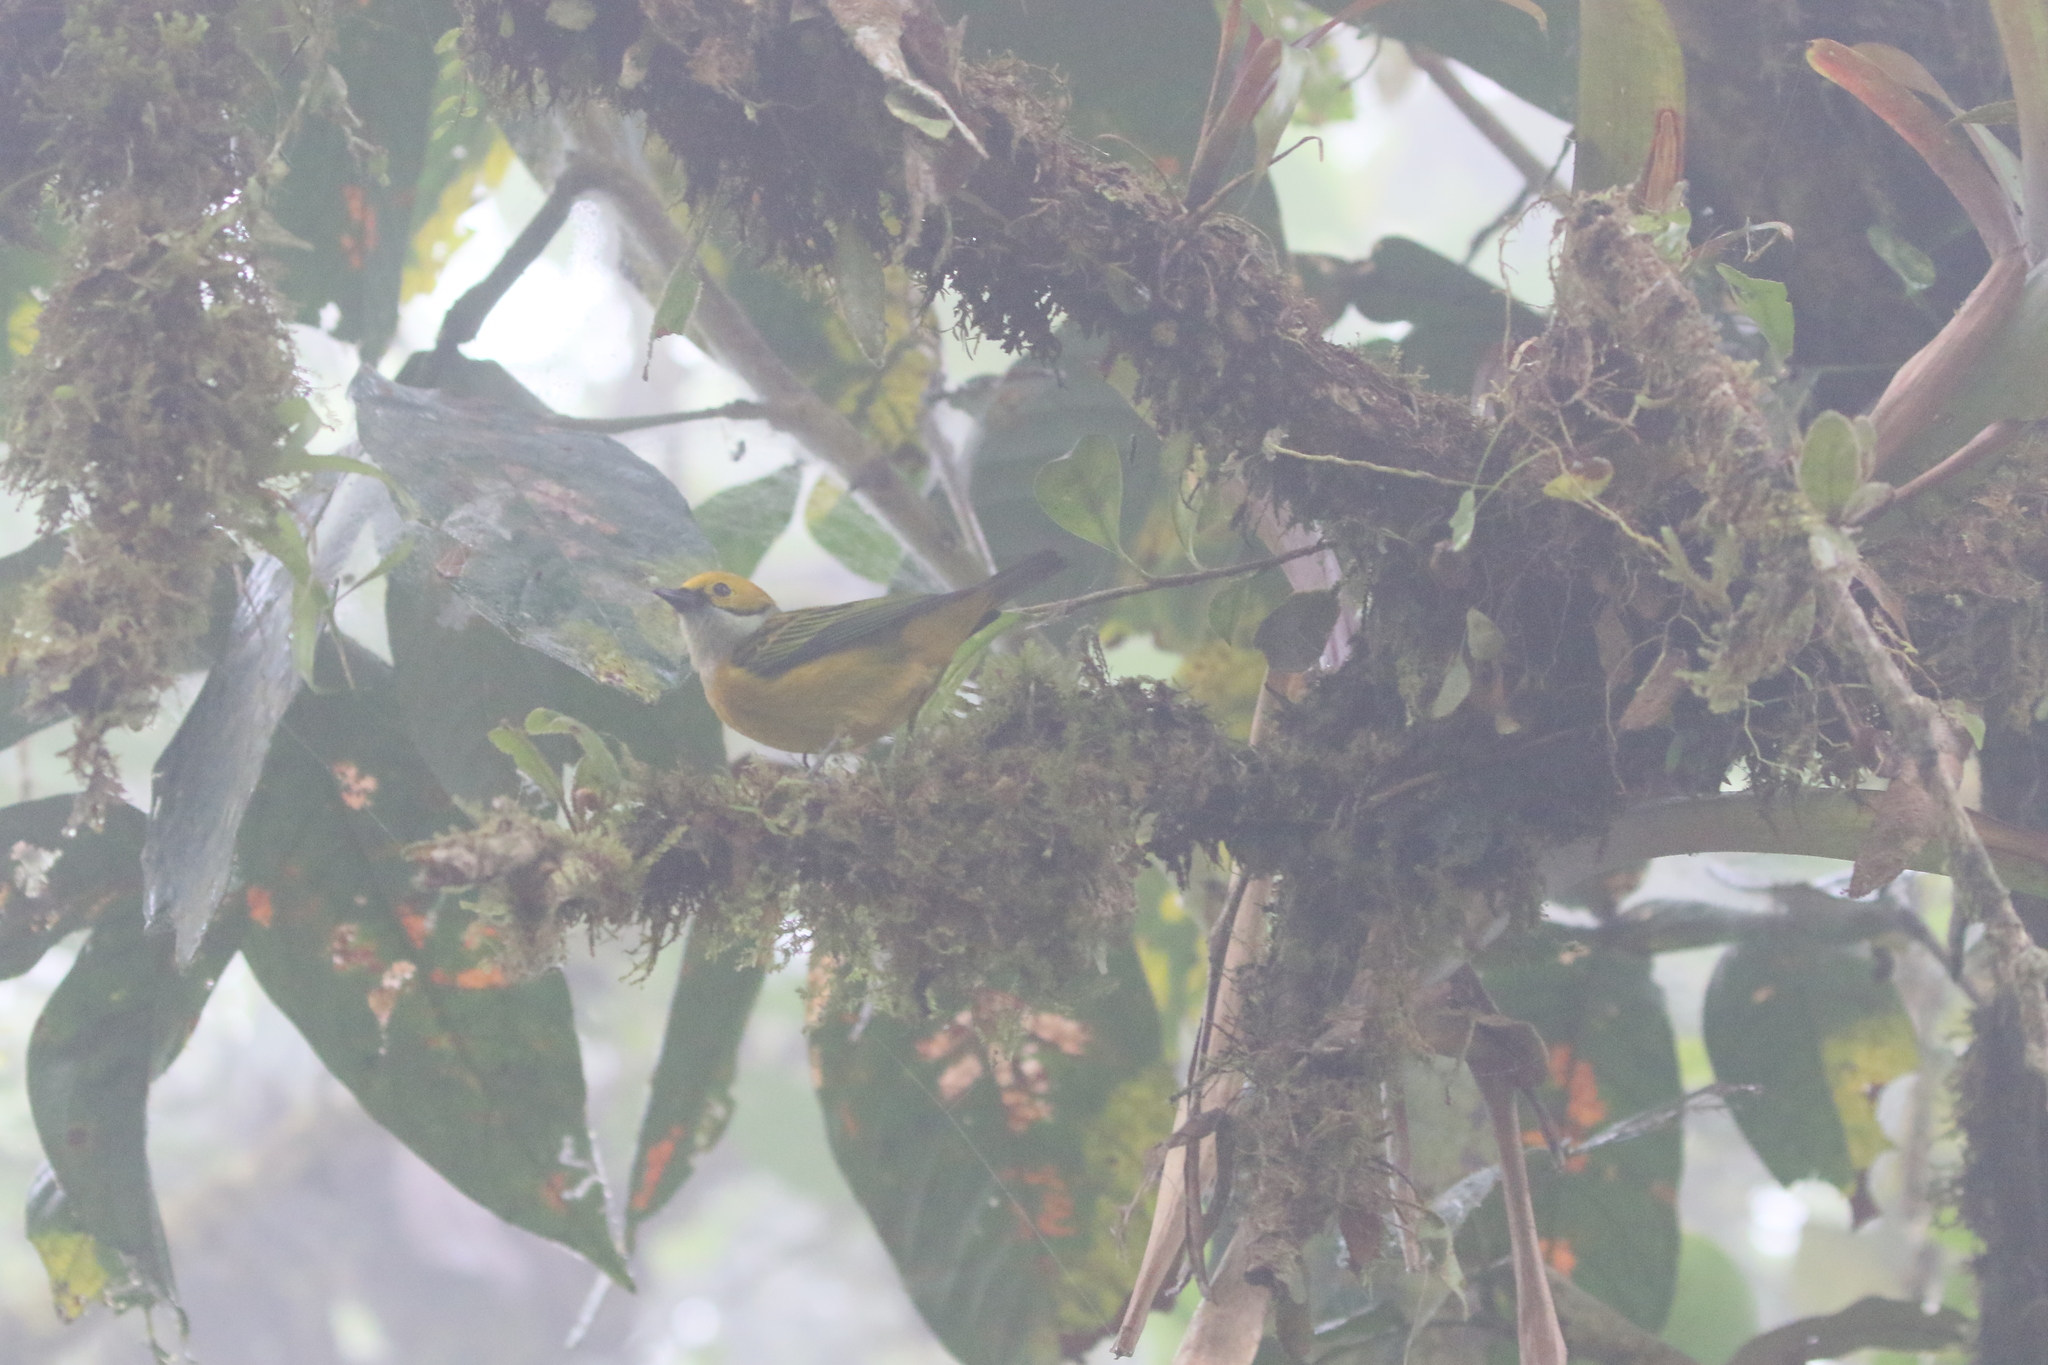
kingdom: Animalia
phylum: Chordata
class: Aves
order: Passeriformes
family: Thraupidae
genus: Tangara
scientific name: Tangara icterocephala
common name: Silver-throated tanager
